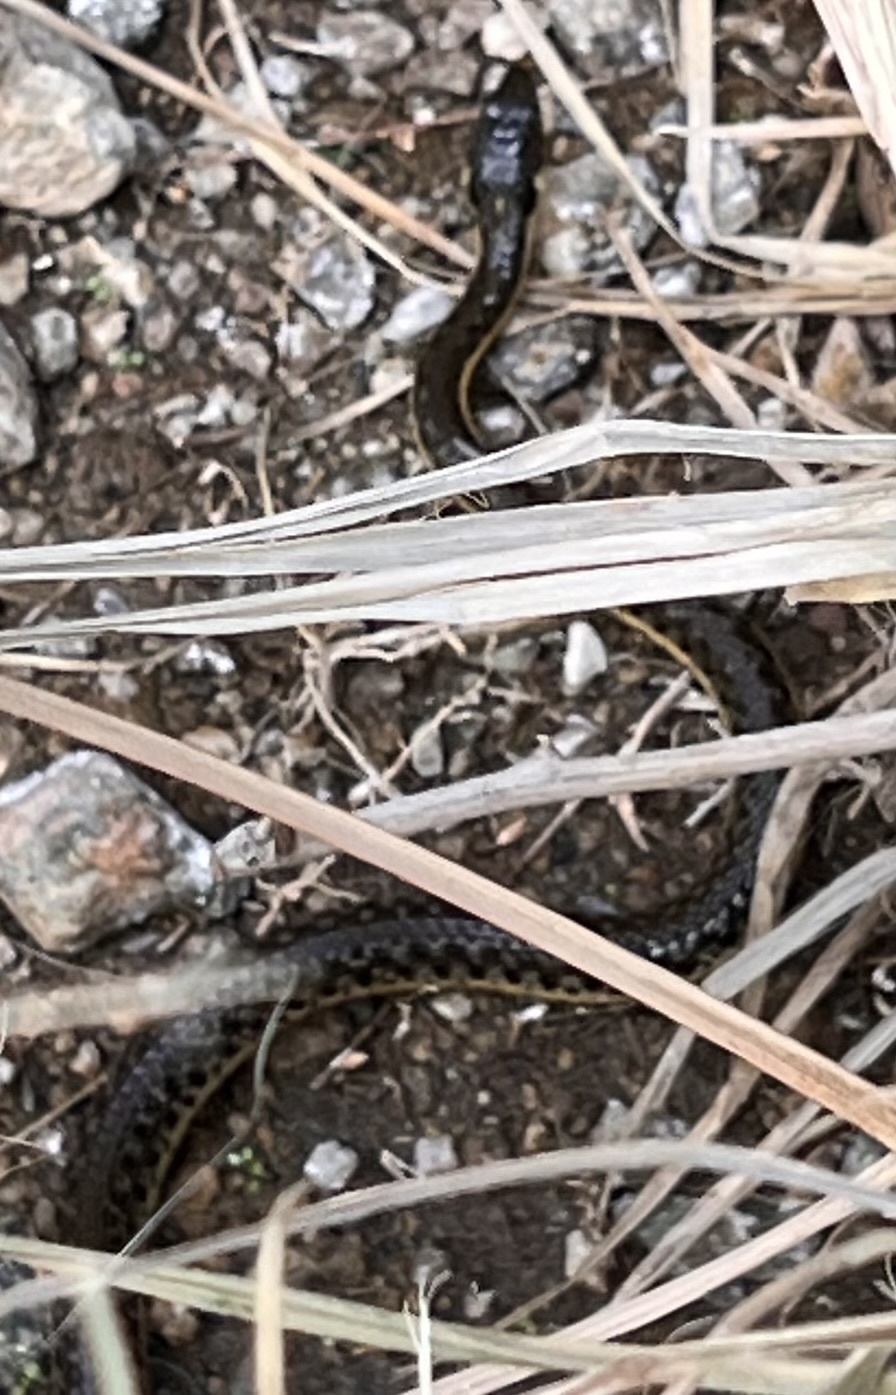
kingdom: Animalia
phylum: Chordata
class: Squamata
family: Colubridae
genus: Thamnophis
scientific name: Thamnophis hammondii
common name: Two-striped garter snake
